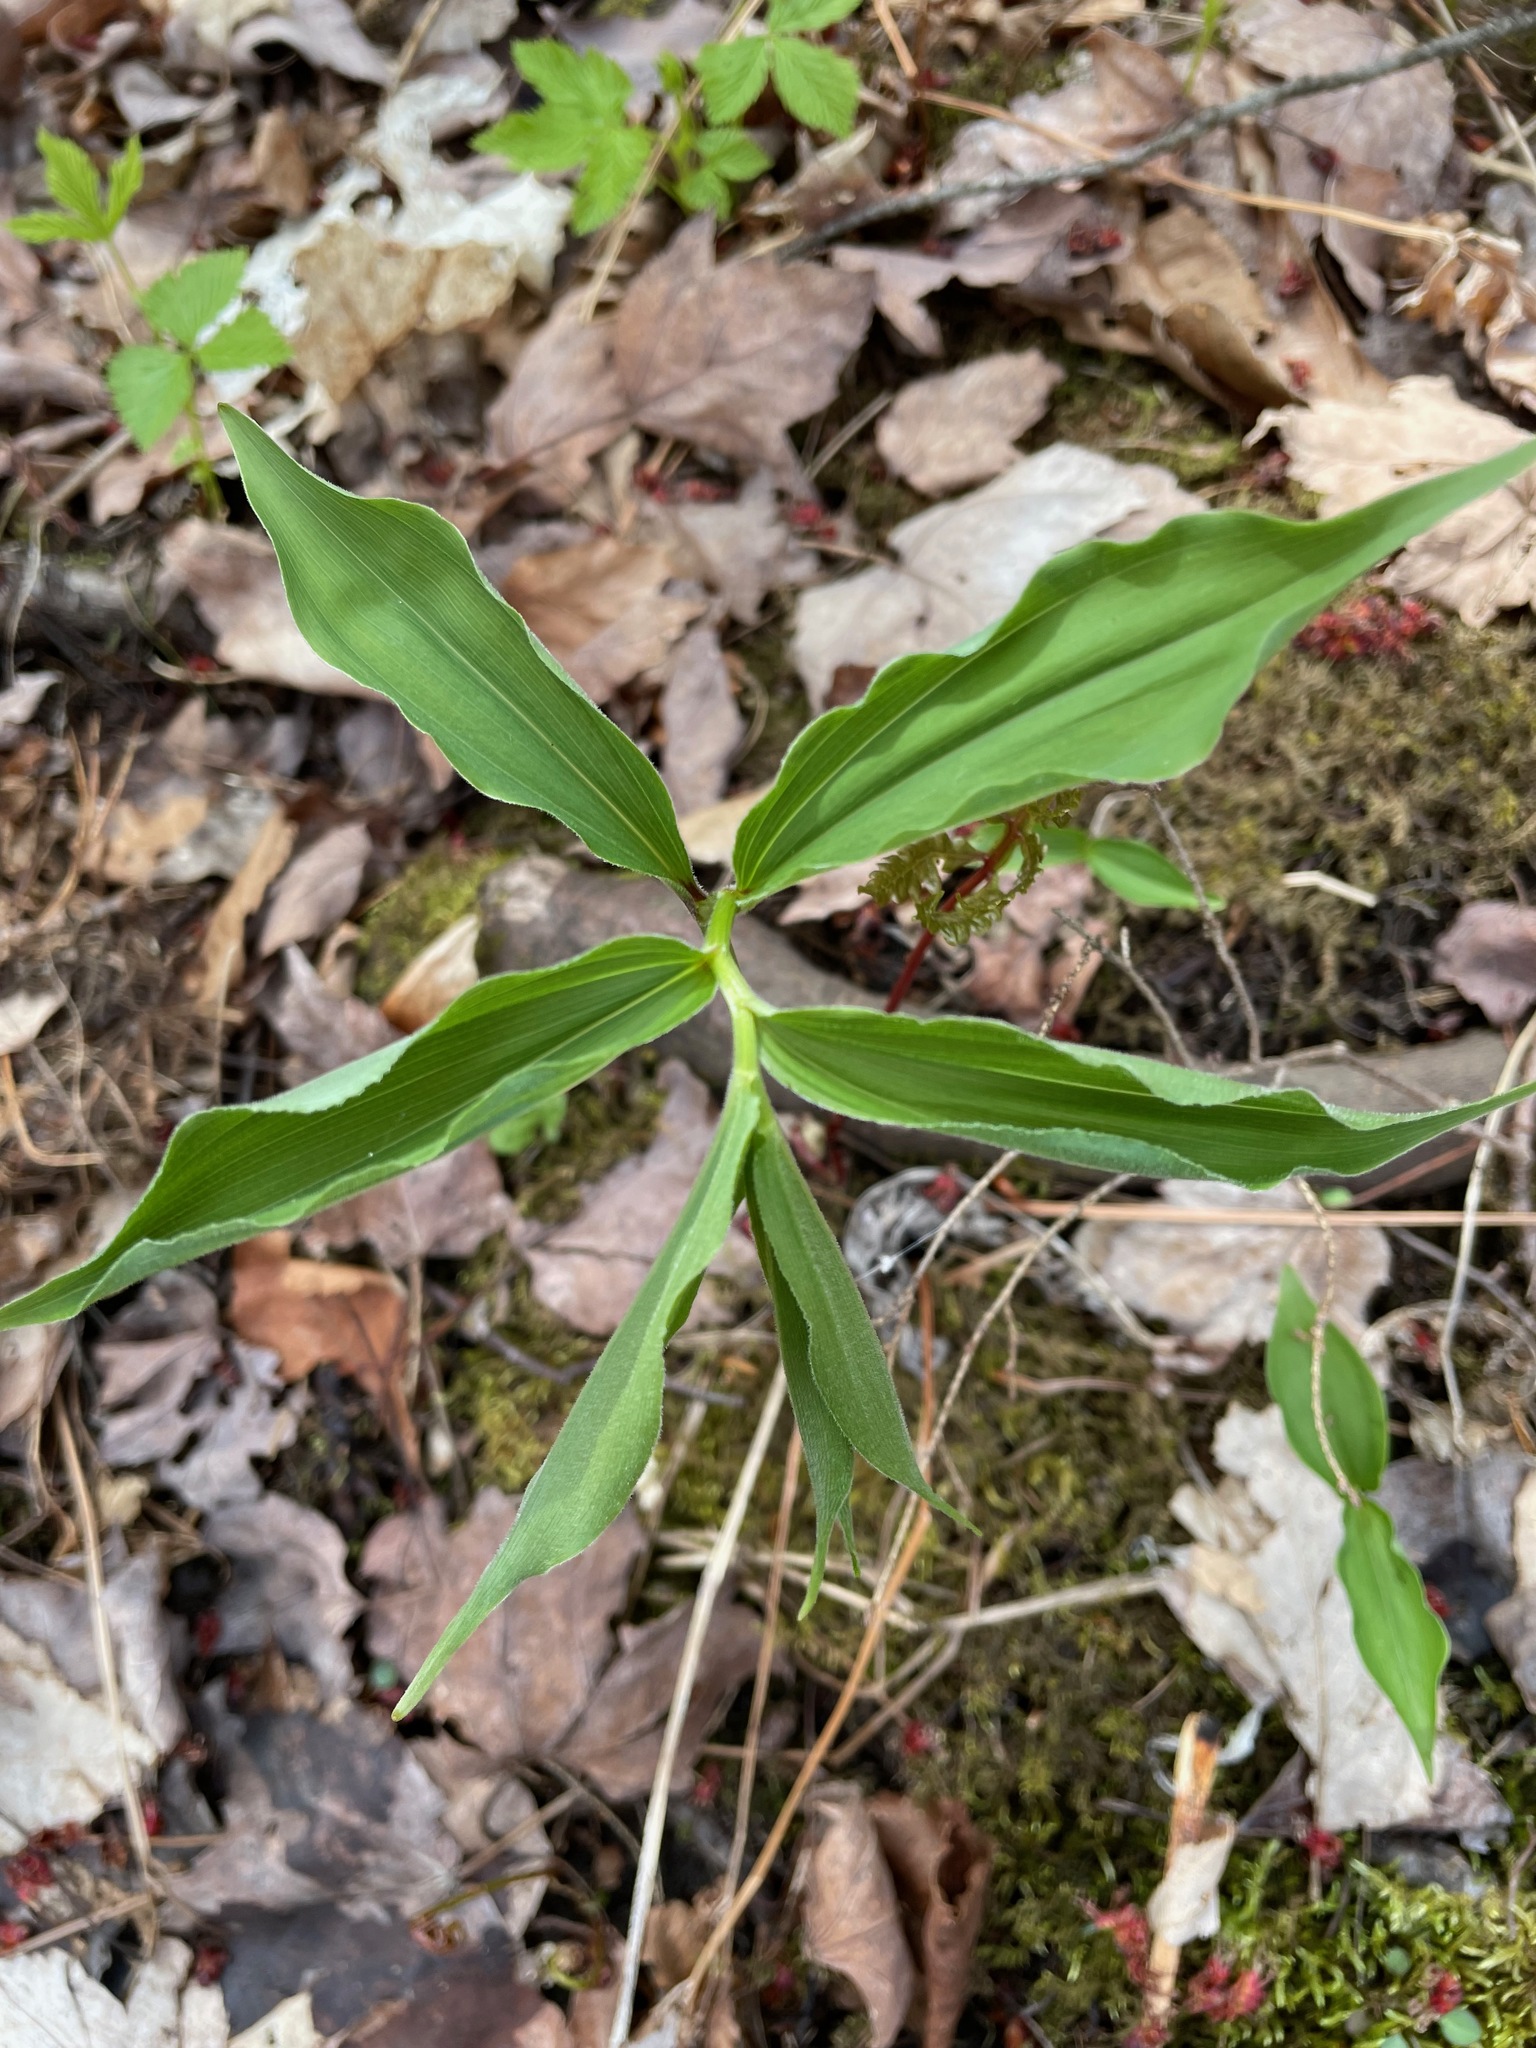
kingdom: Plantae
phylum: Tracheophyta
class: Liliopsida
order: Asparagales
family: Asparagaceae
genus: Maianthemum
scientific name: Maianthemum racemosum
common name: False spikenard
